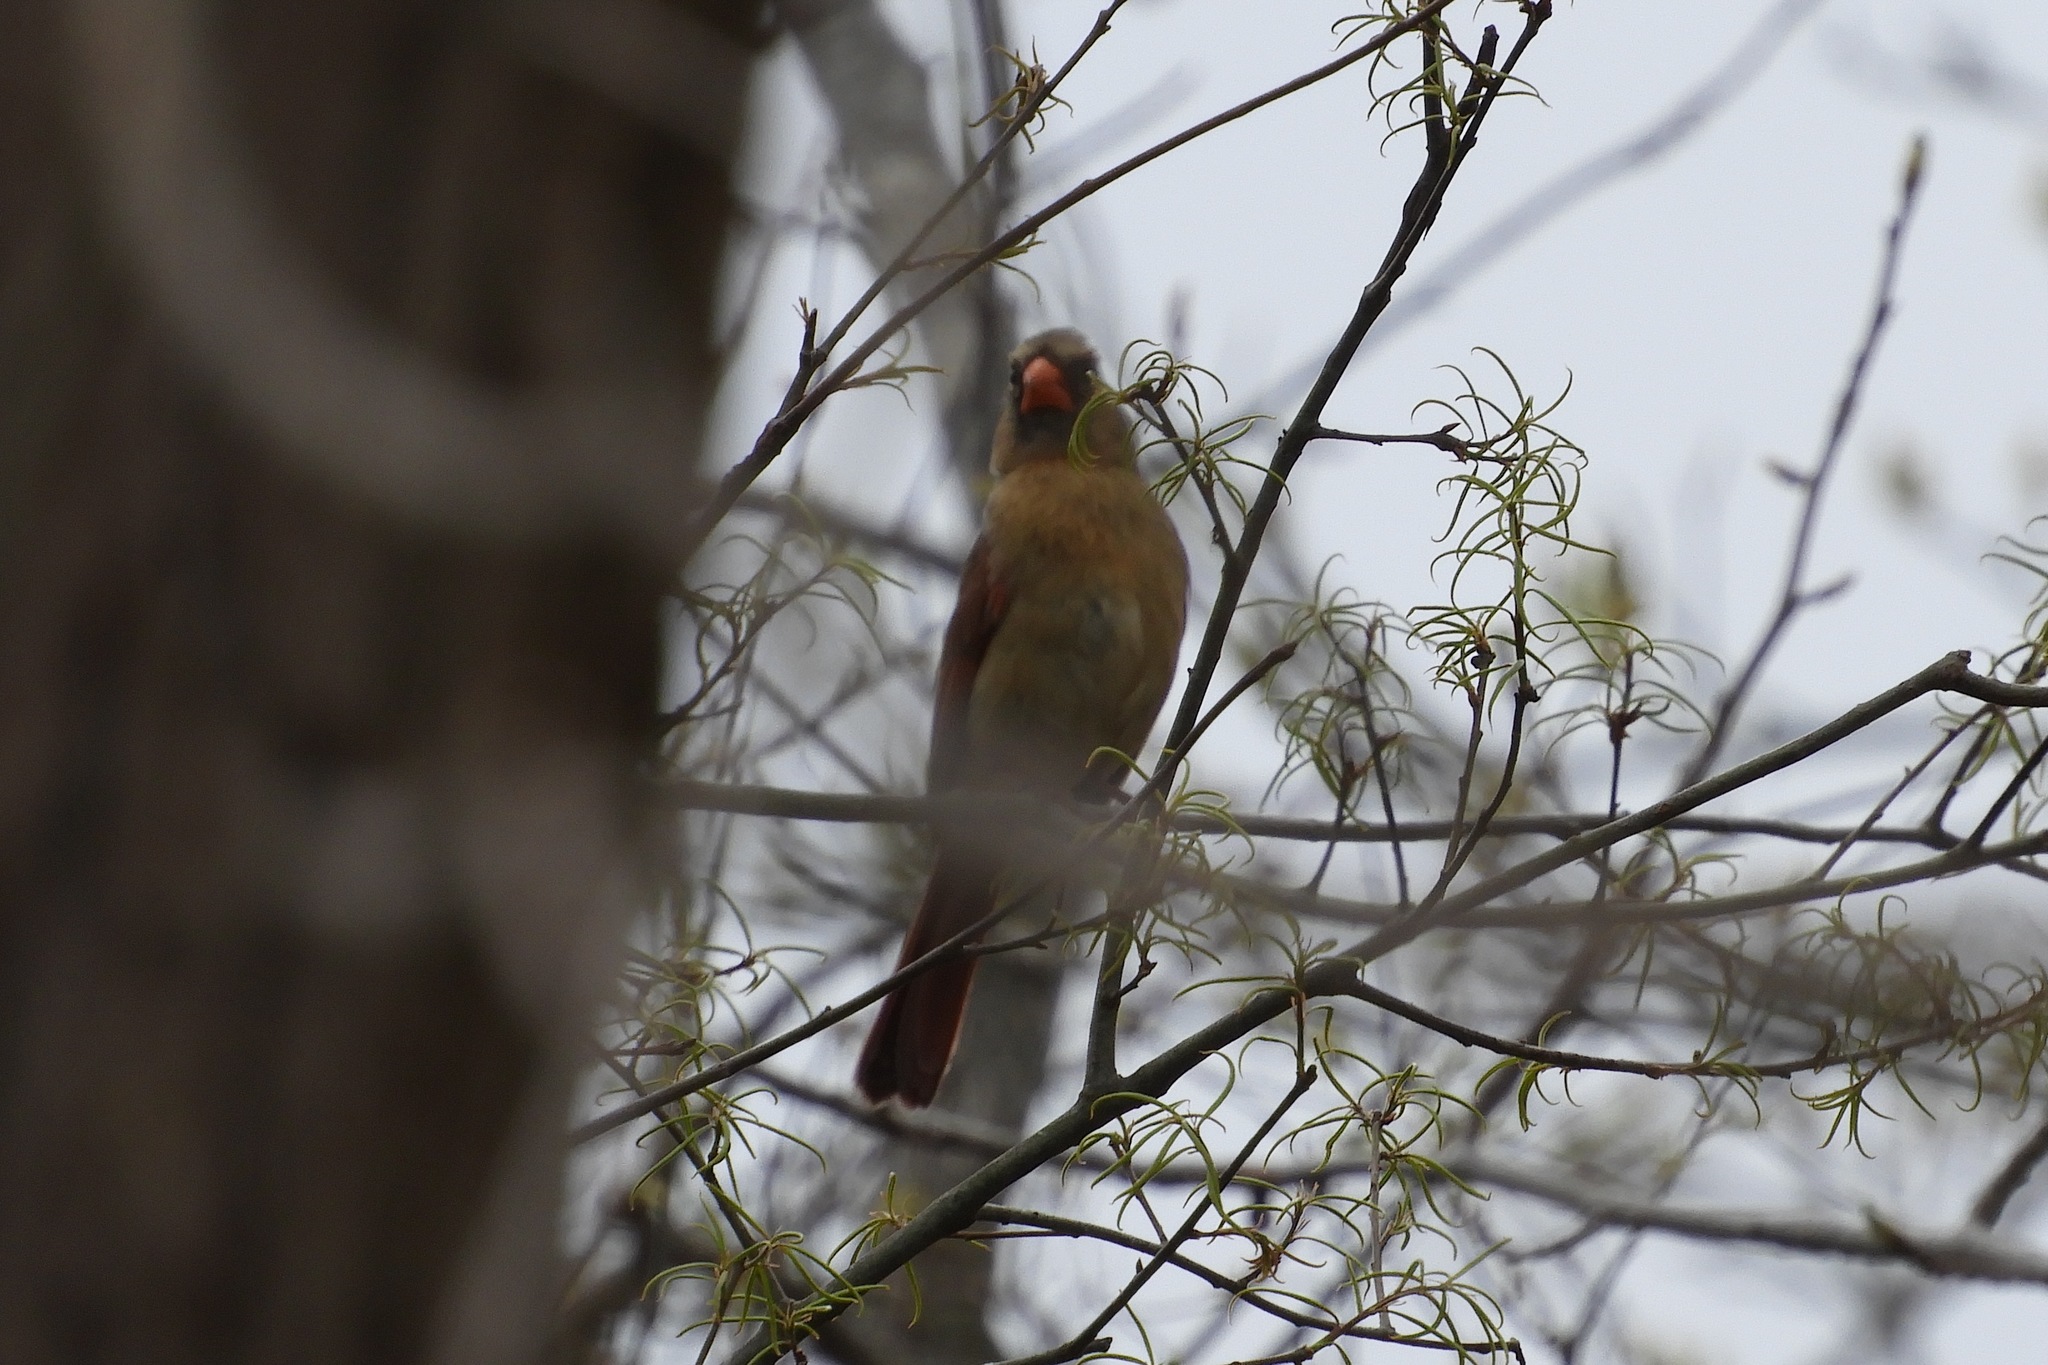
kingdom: Animalia
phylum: Chordata
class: Aves
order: Passeriformes
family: Cardinalidae
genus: Cardinalis
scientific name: Cardinalis cardinalis
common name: Northern cardinal
